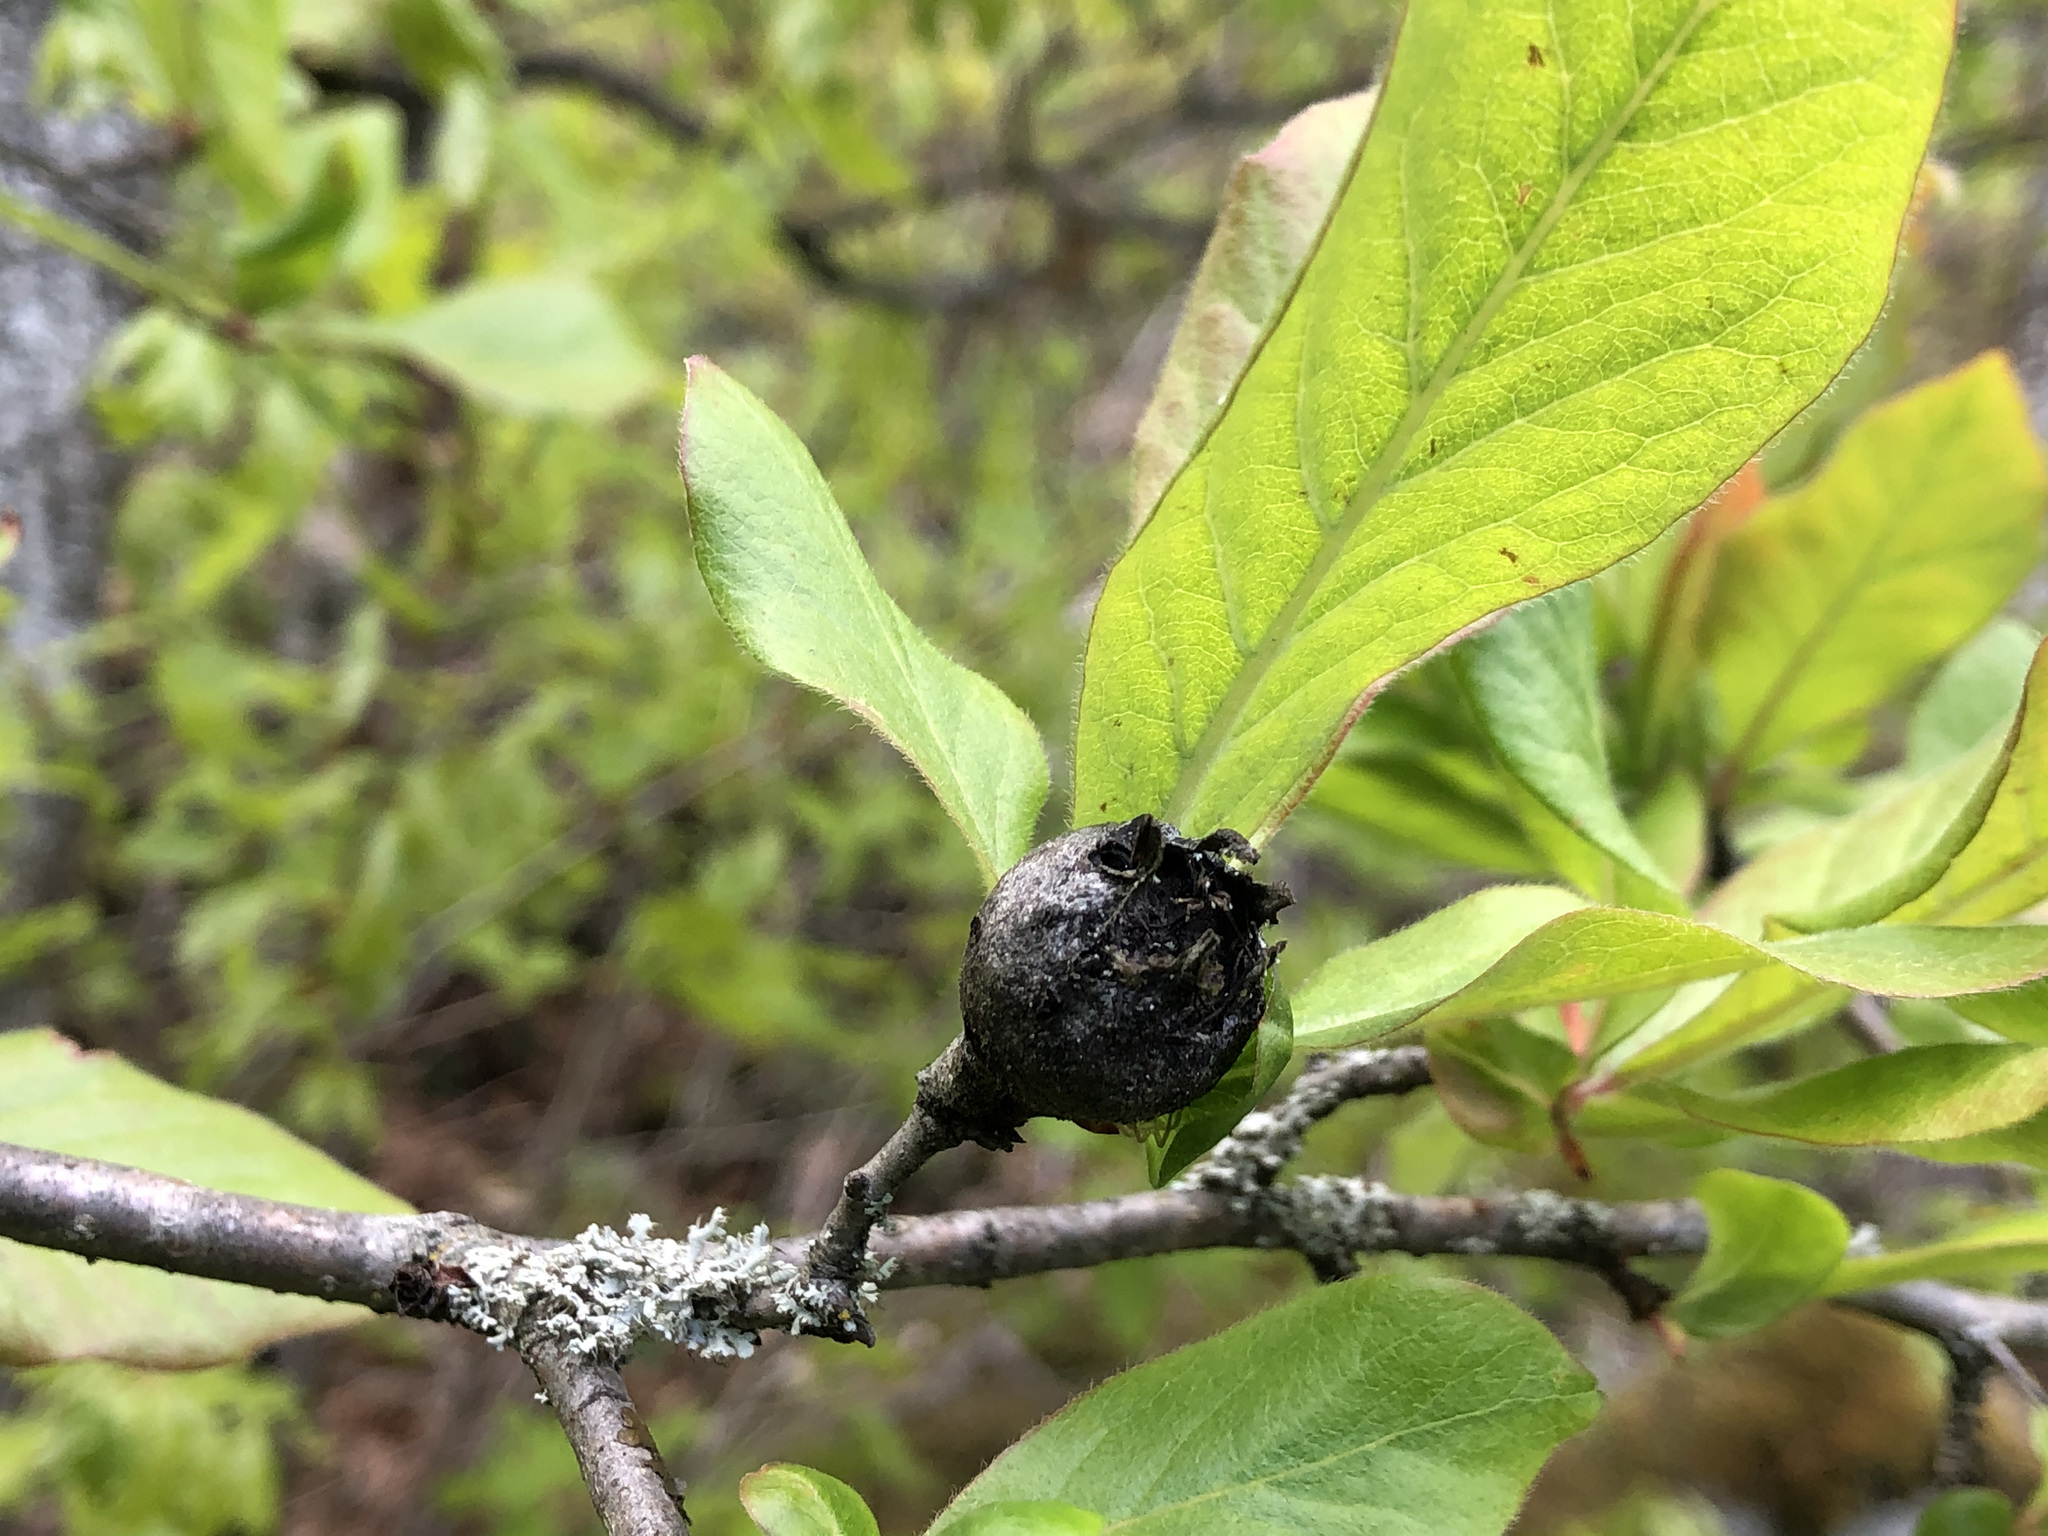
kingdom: Plantae
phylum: Tracheophyta
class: Magnoliopsida
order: Rosales
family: Rosaceae
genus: Mespilus
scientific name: Mespilus germanica
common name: Medlar
